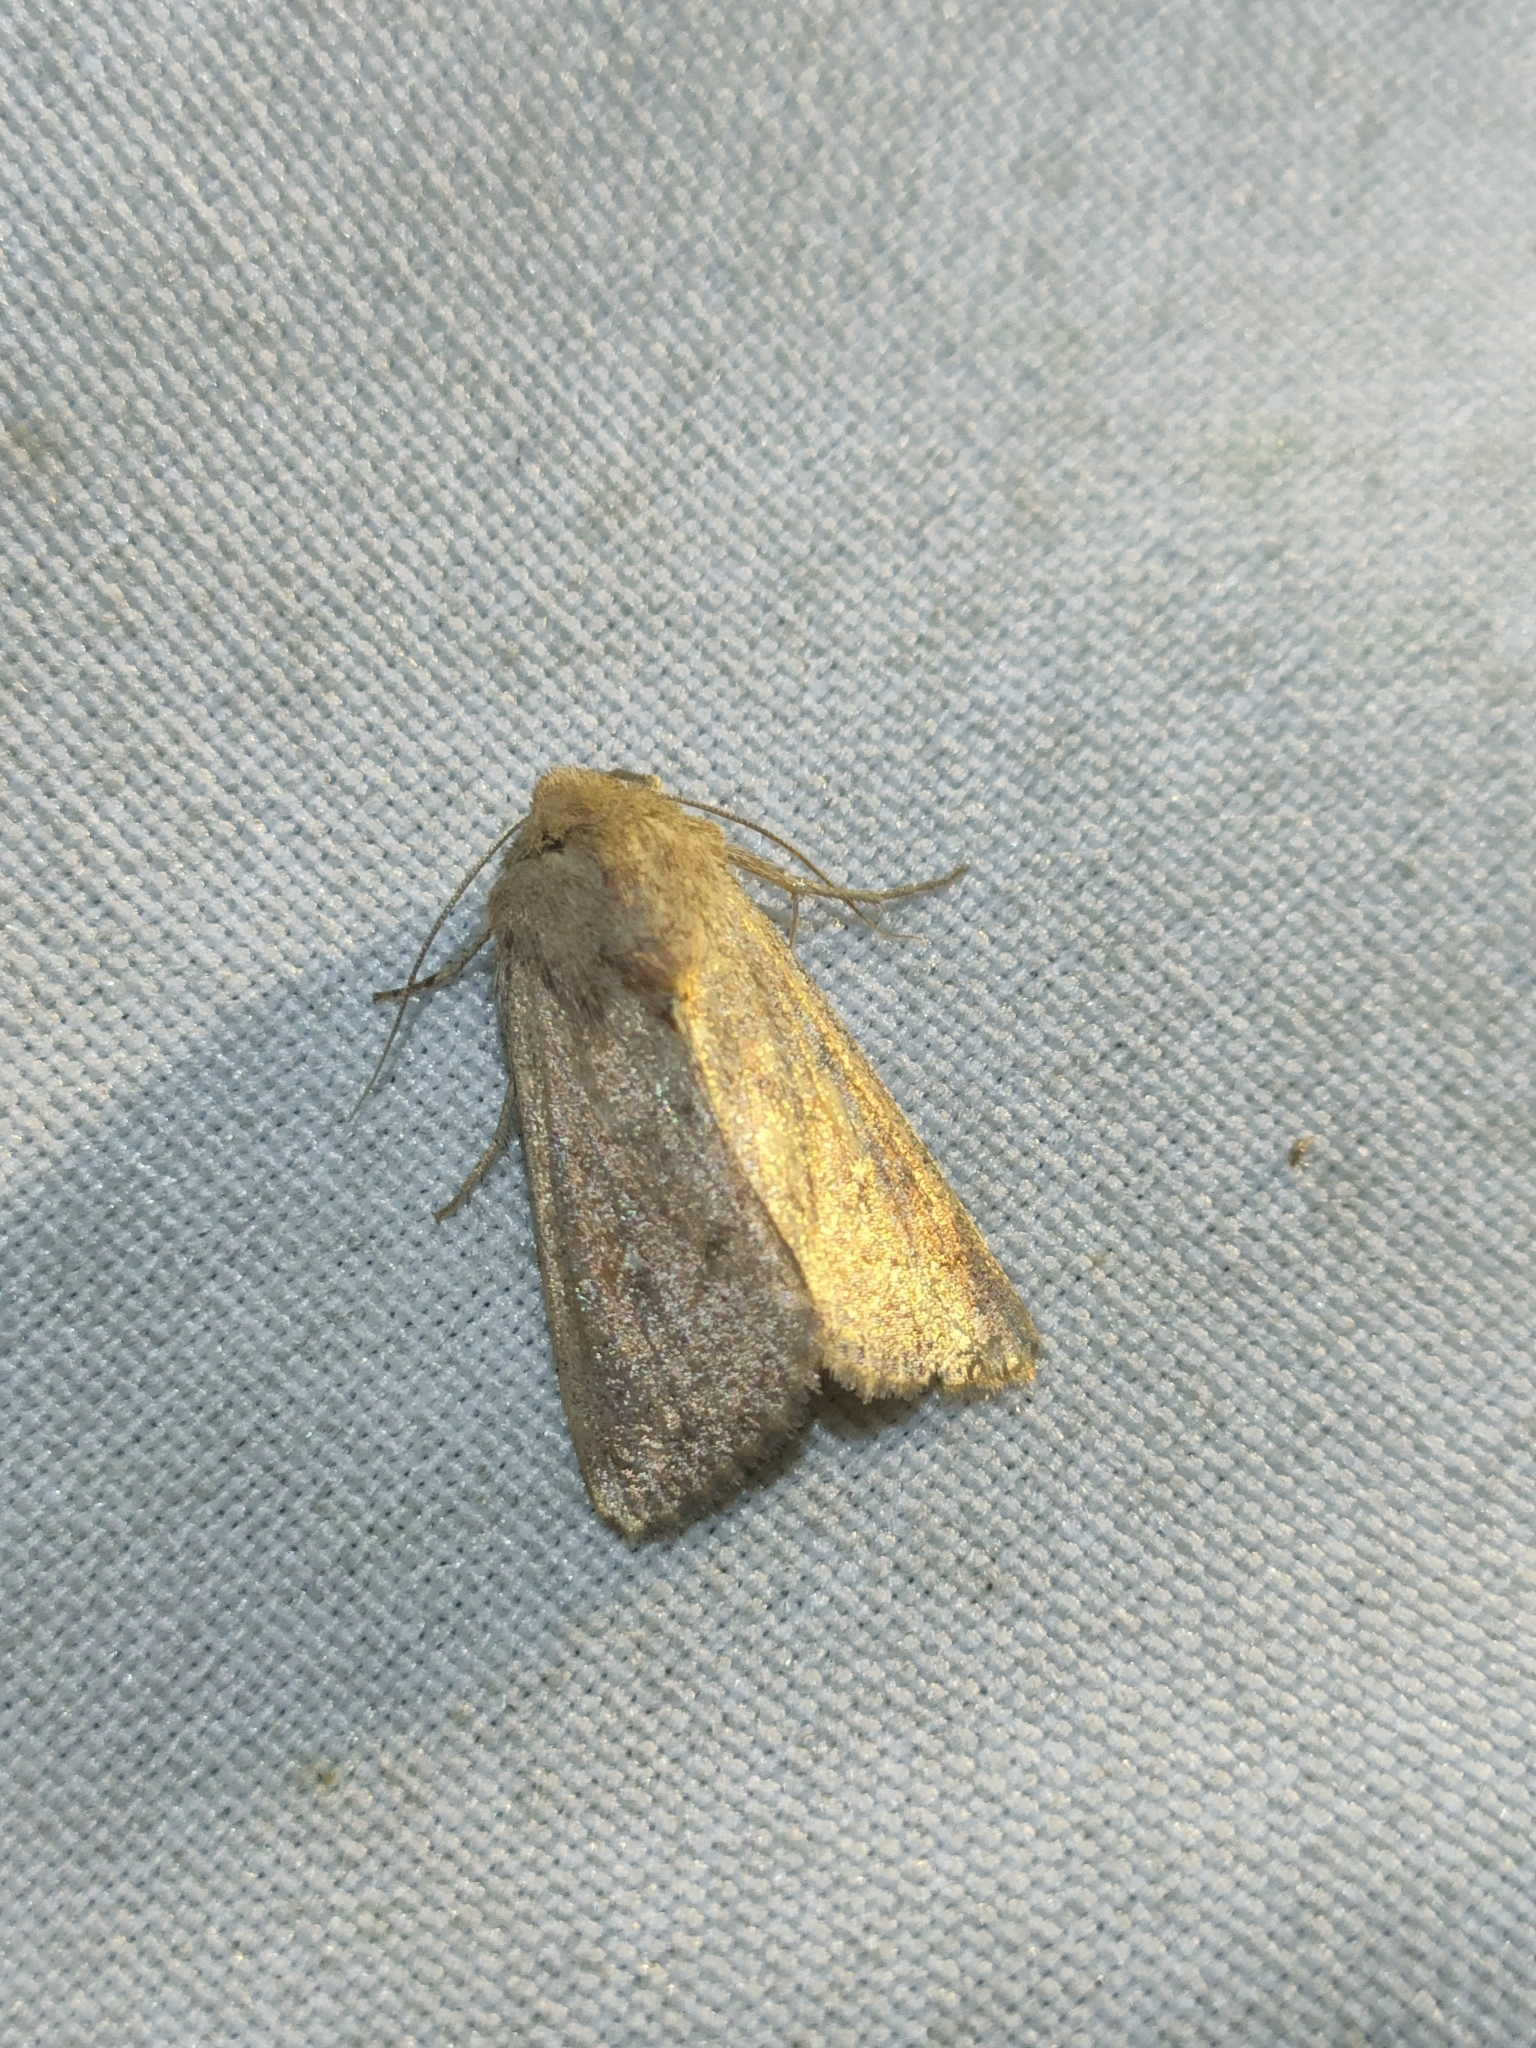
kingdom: Animalia
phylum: Arthropoda
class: Insecta
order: Lepidoptera
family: Noctuidae
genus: Mythimna
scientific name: Mythimna albipuncta
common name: White-point
